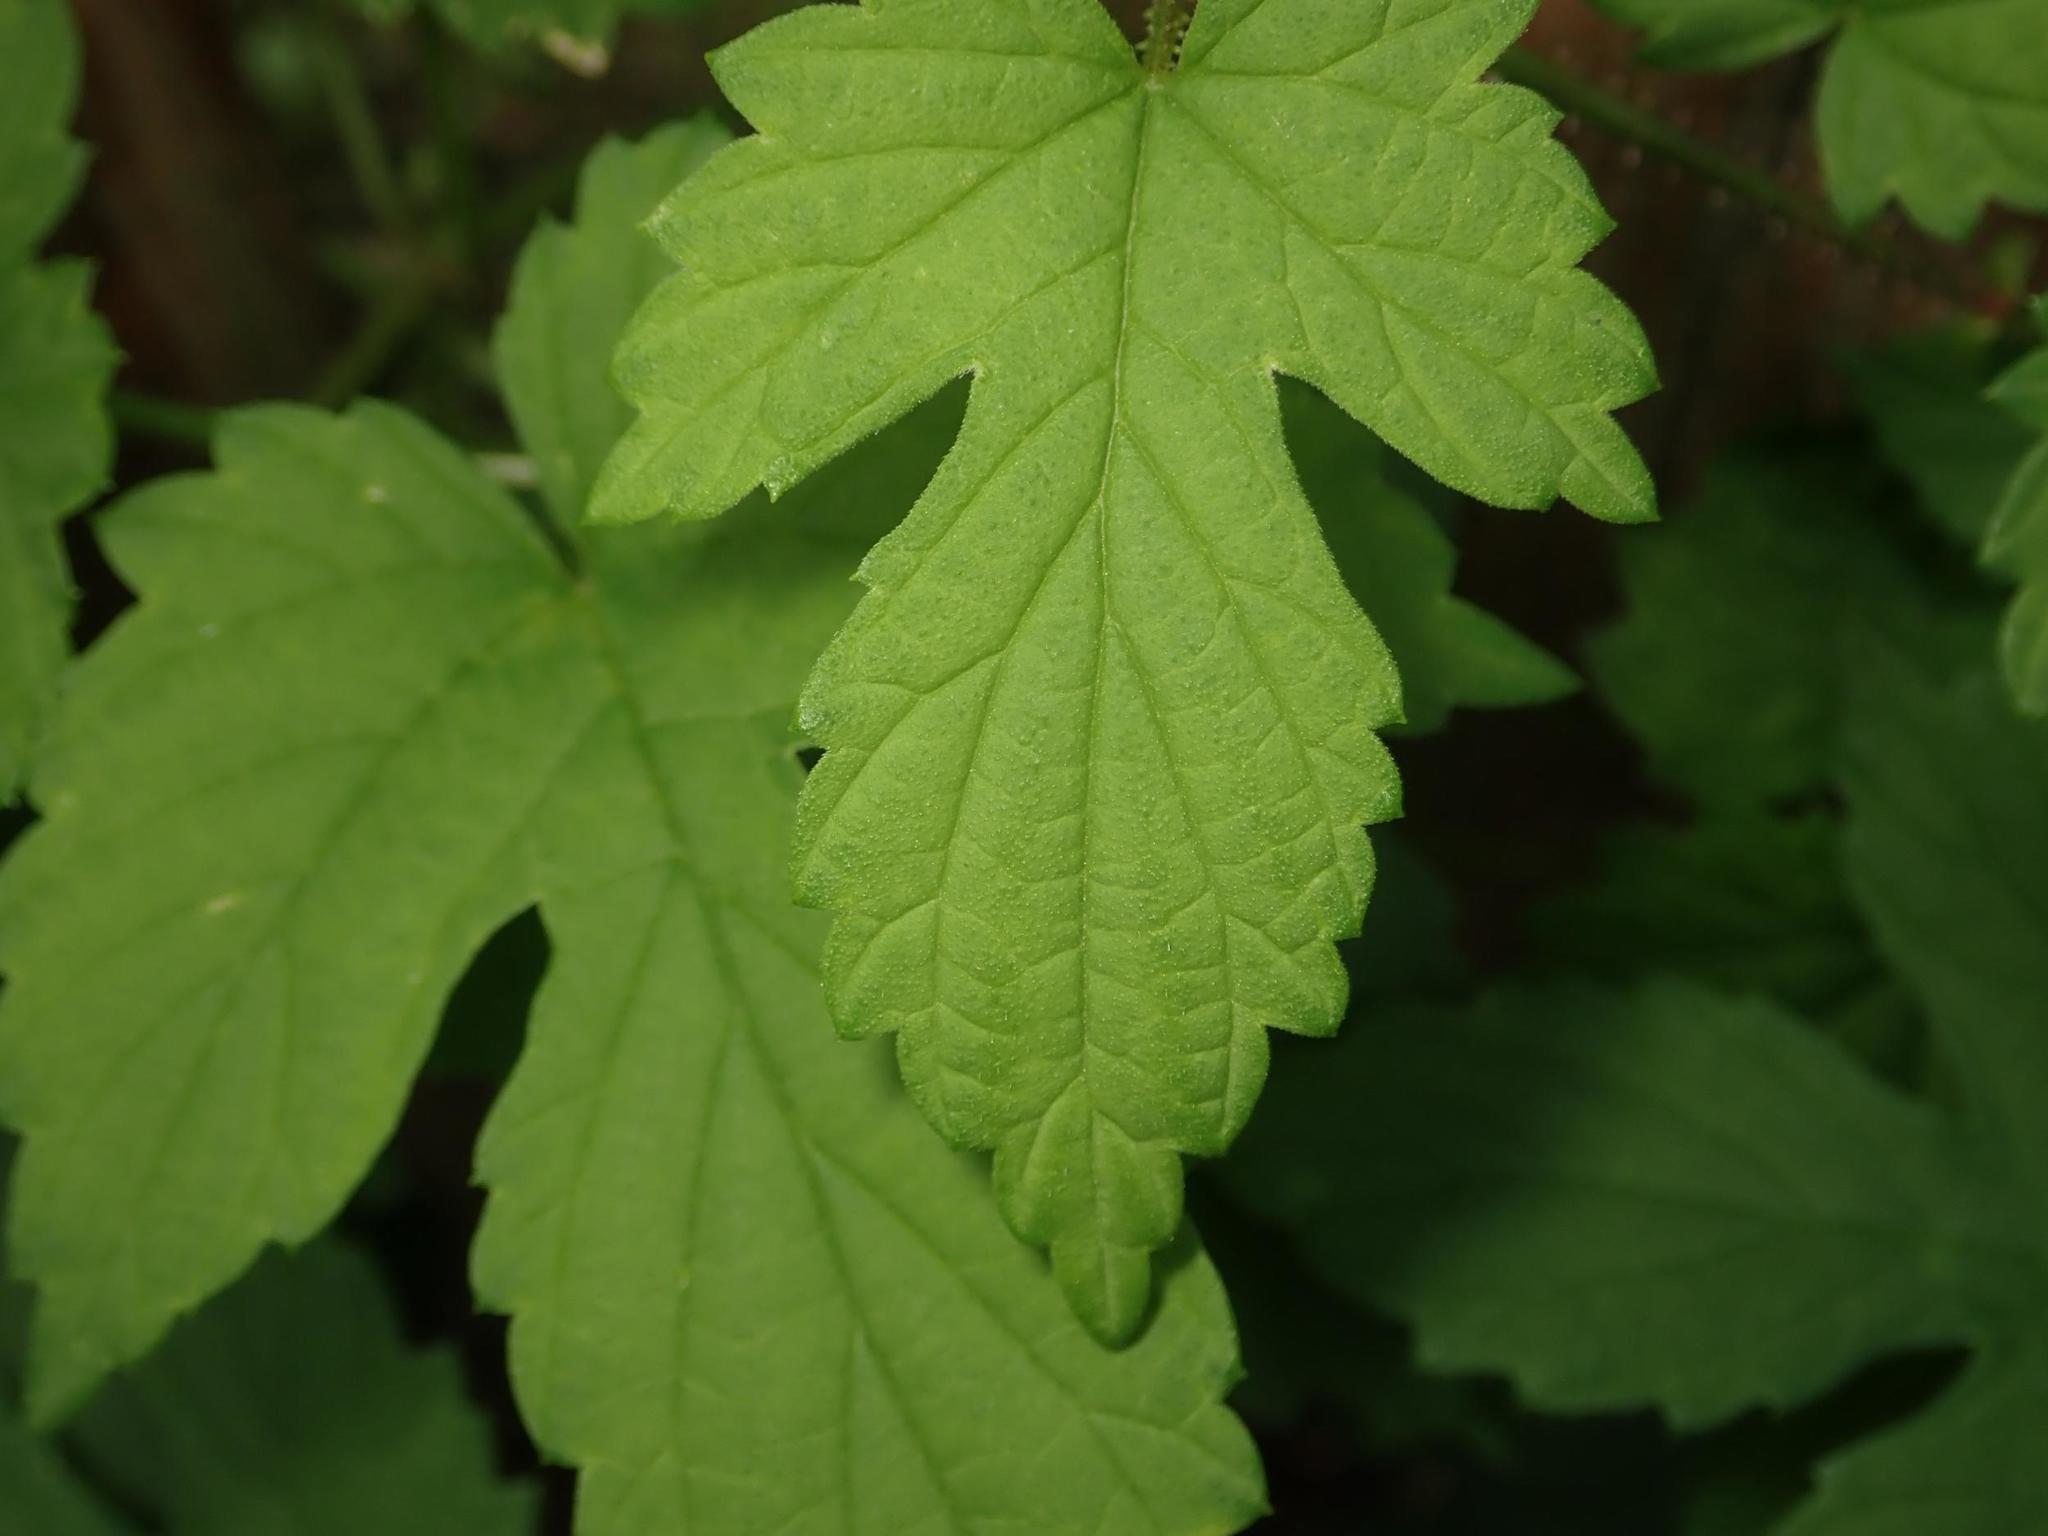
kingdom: Plantae
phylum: Tracheophyta
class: Magnoliopsida
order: Rosales
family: Cannabaceae
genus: Humulus
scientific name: Humulus lupulus
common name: Hop
